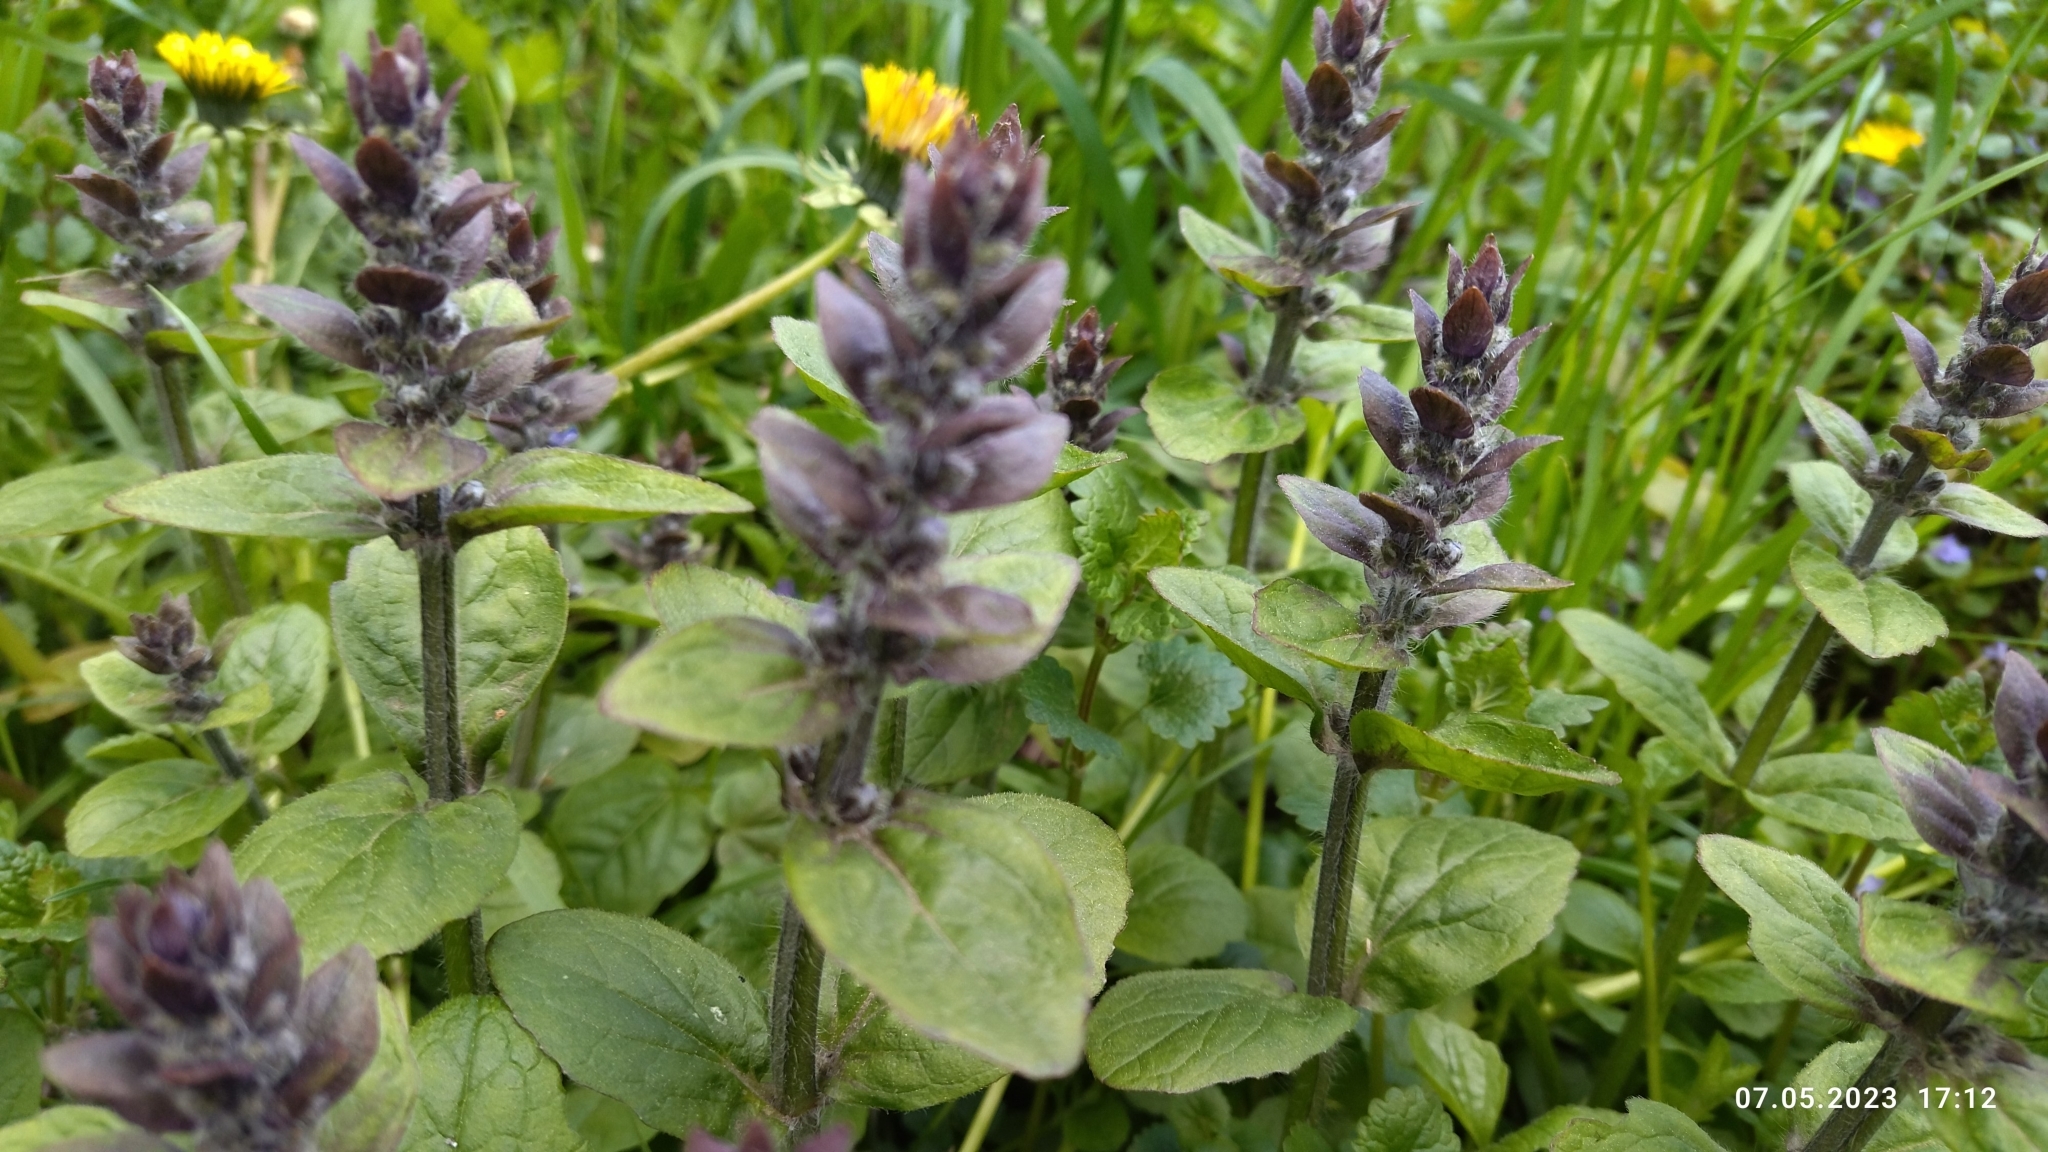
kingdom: Plantae
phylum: Tracheophyta
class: Magnoliopsida
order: Lamiales
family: Lamiaceae
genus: Ajuga
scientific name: Ajuga reptans
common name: Bugle
